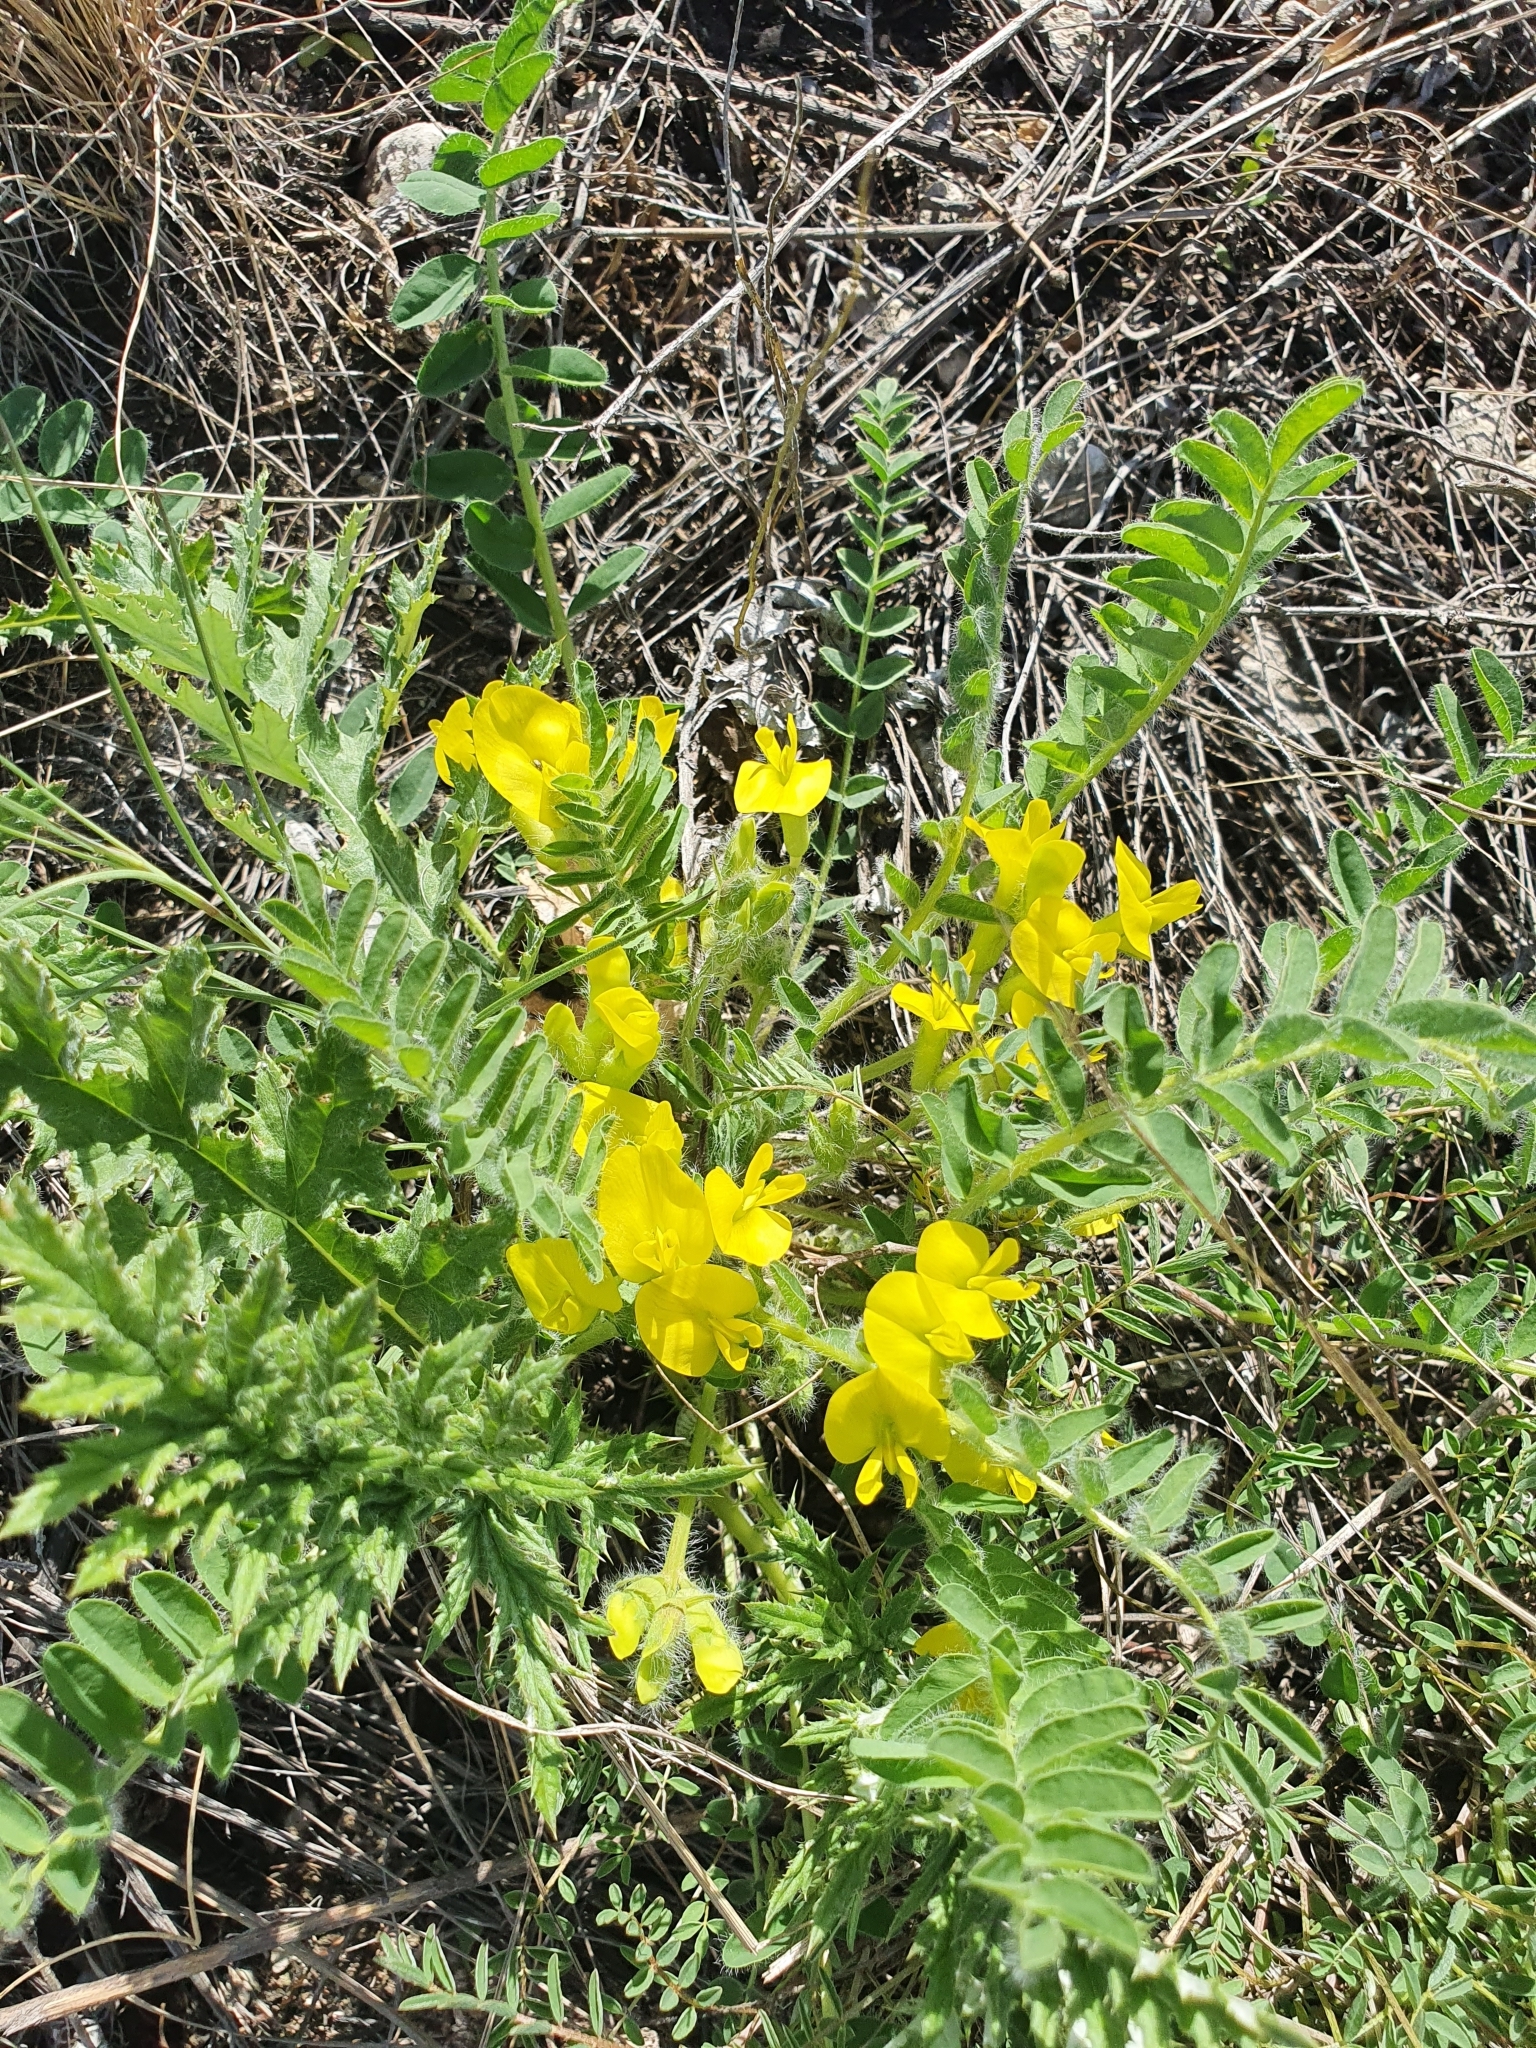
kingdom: Plantae
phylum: Tracheophyta
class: Magnoliopsida
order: Fabales
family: Fabaceae
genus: Astragalus
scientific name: Astragalus wolgensis
